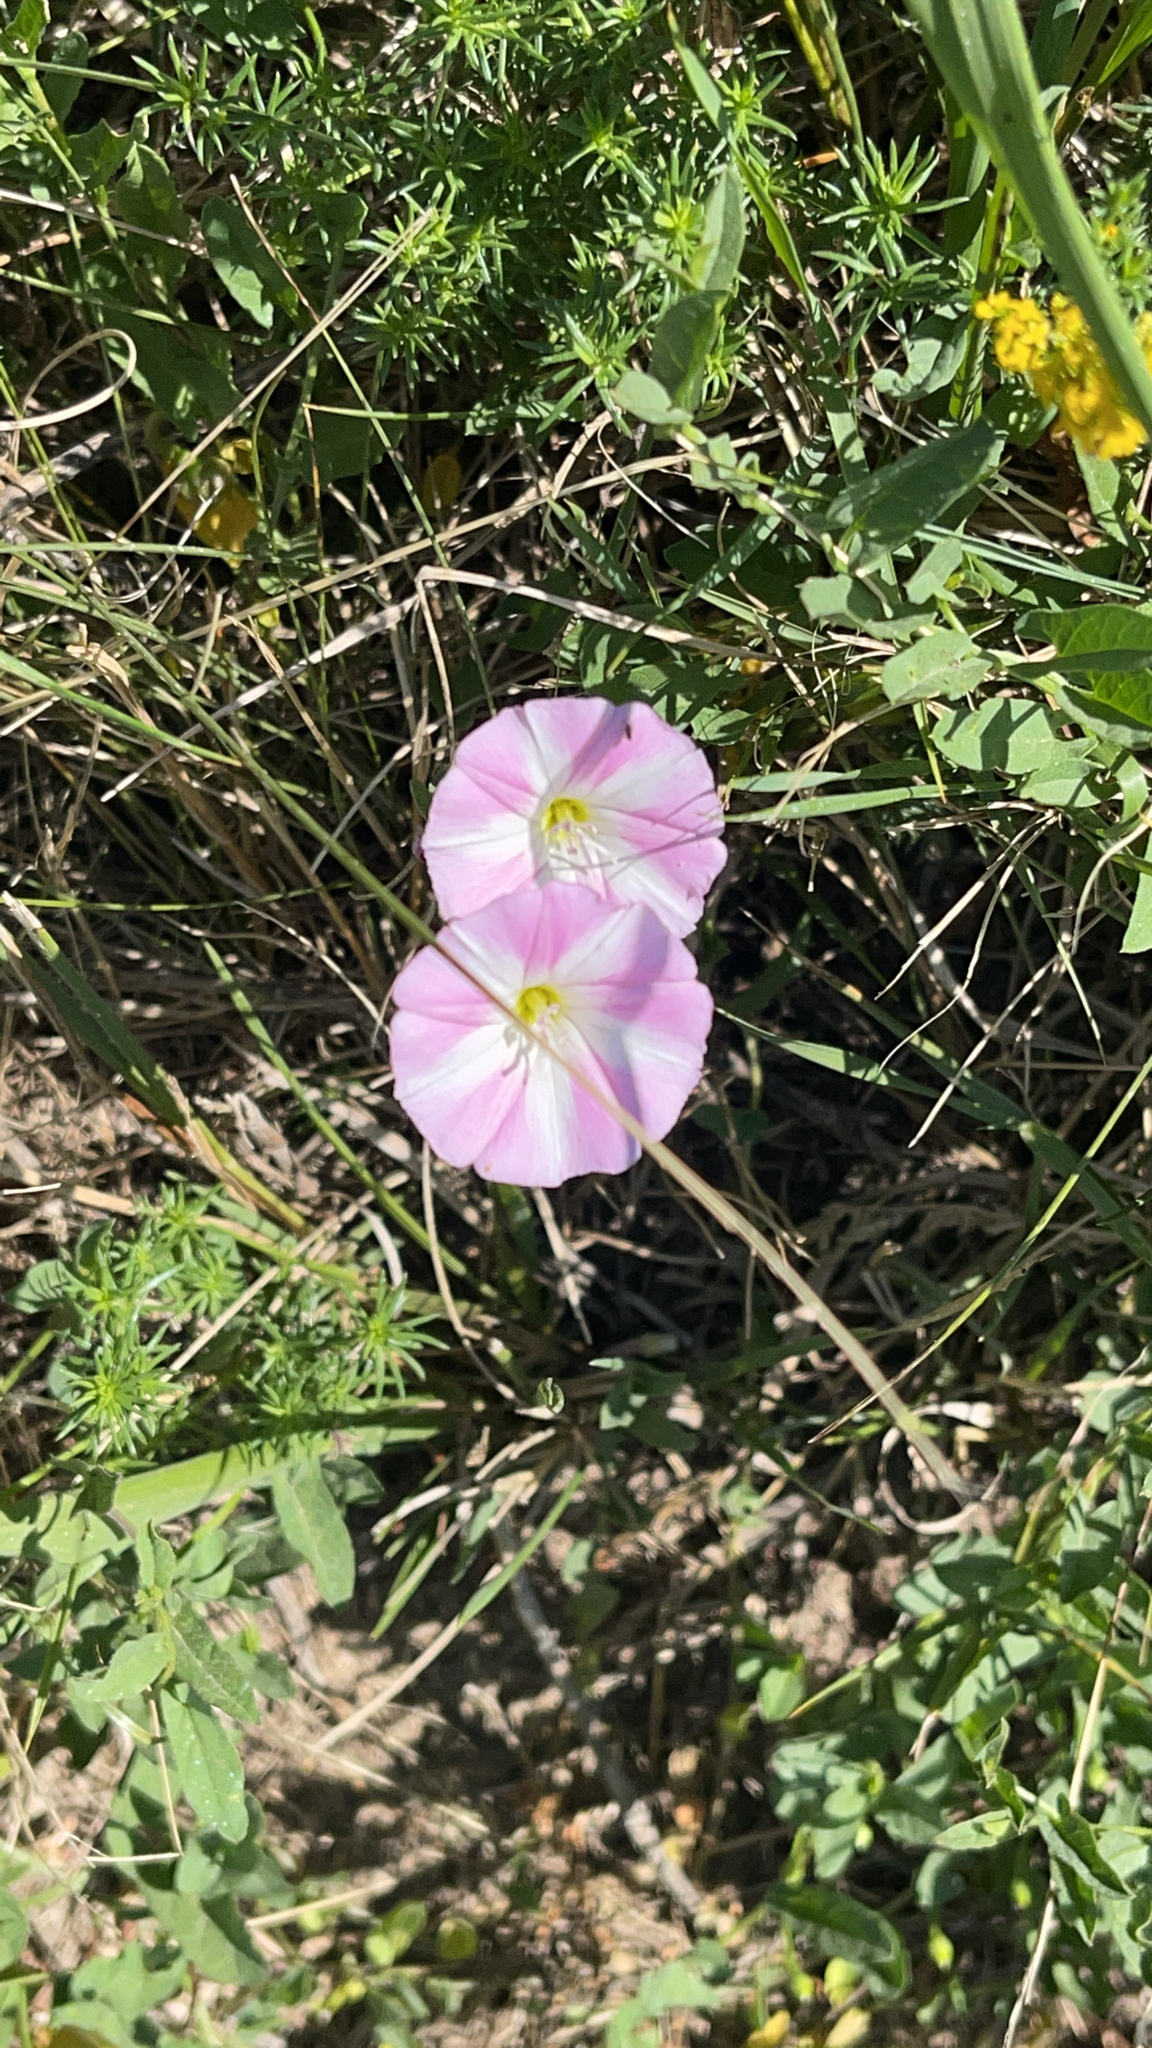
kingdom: Plantae
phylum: Tracheophyta
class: Magnoliopsida
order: Solanales
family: Convolvulaceae
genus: Convolvulus
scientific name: Convolvulus arvensis
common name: Field bindweed
